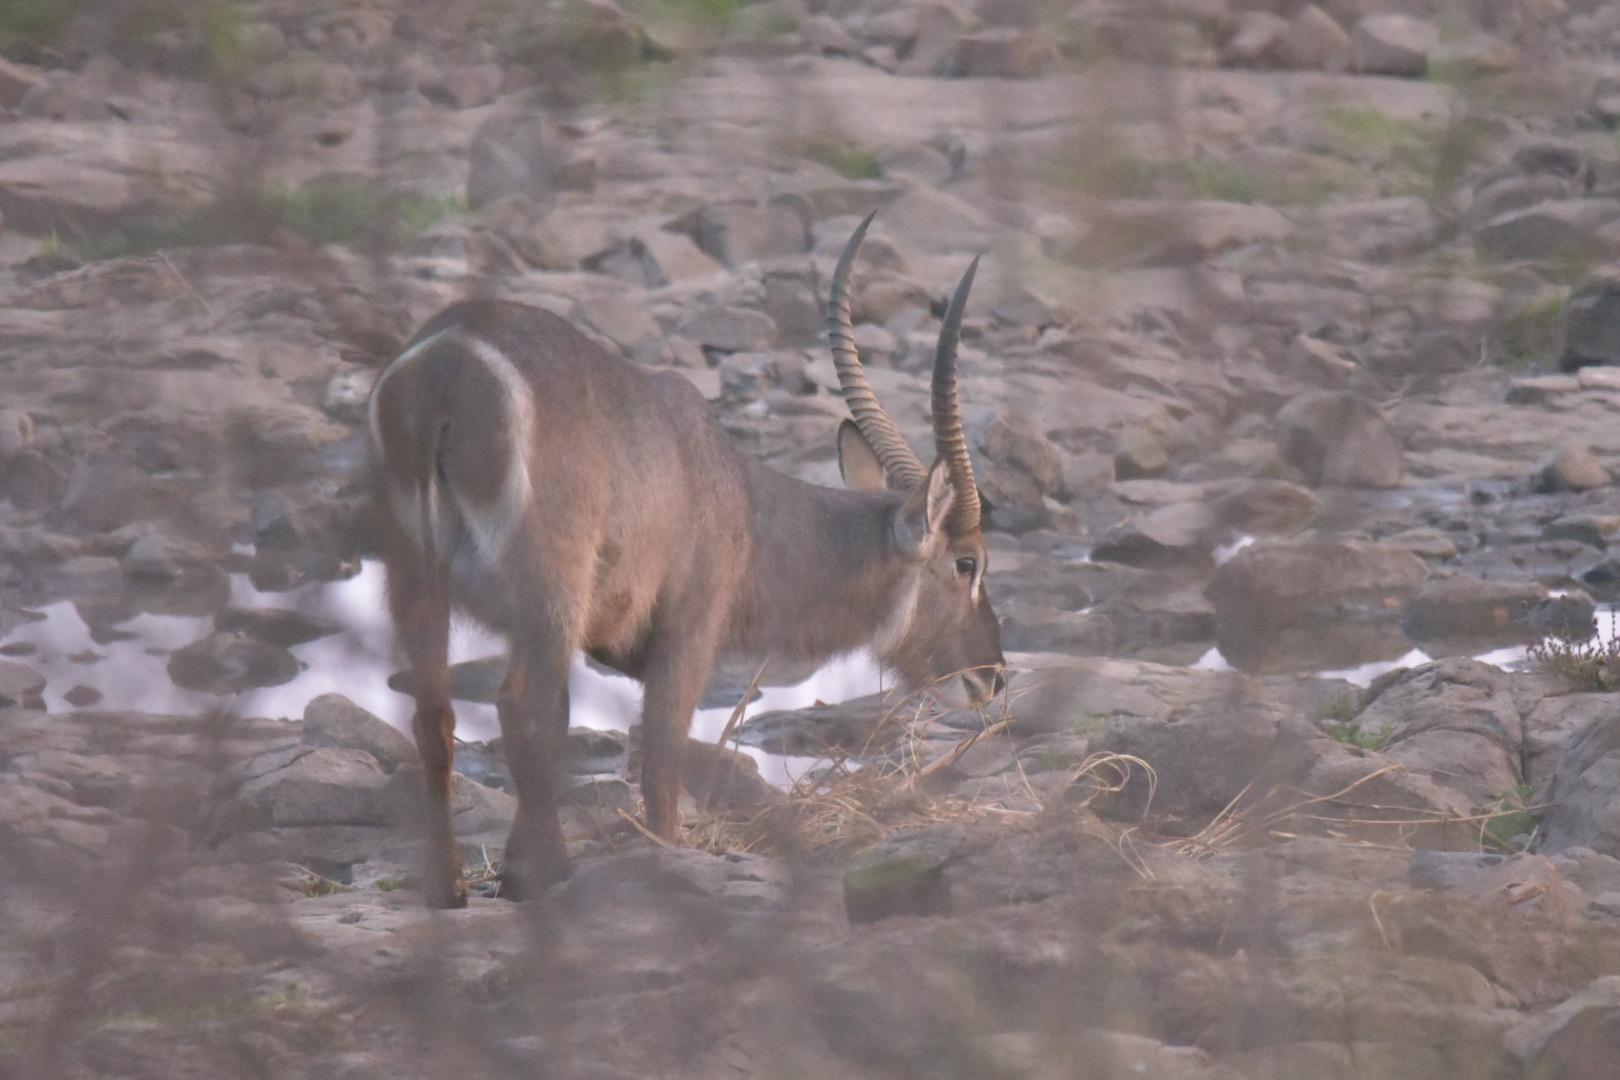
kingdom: Animalia
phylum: Chordata
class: Mammalia
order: Artiodactyla
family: Bovidae
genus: Kobus
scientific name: Kobus ellipsiprymnus
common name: Waterbuck
